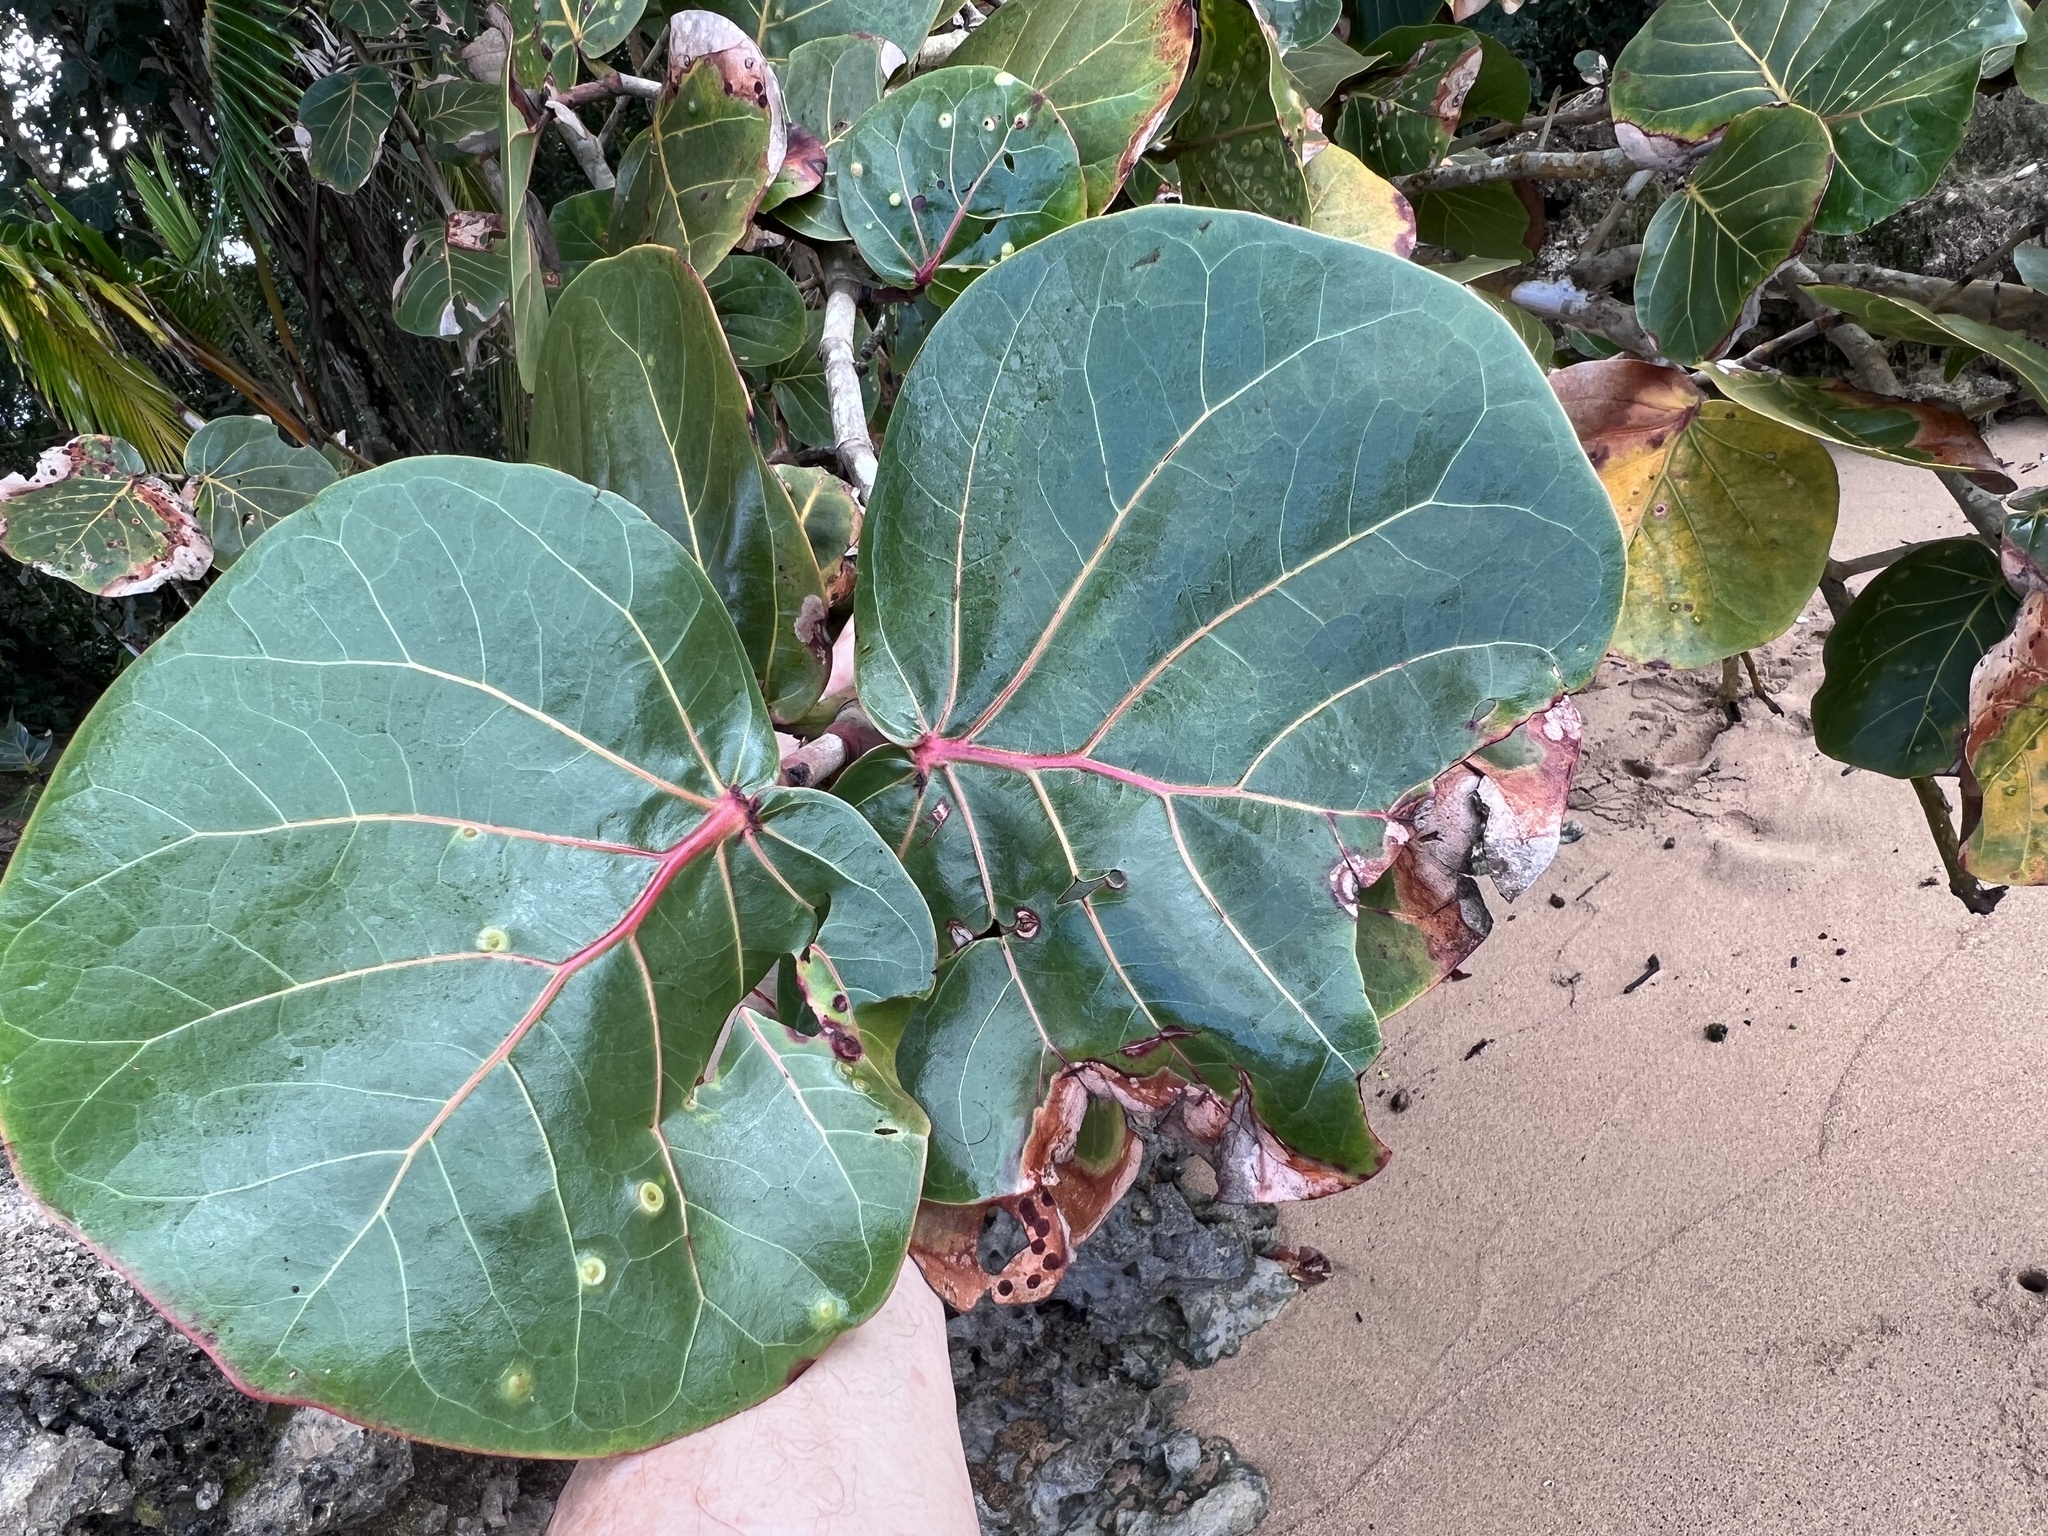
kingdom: Plantae
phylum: Tracheophyta
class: Magnoliopsida
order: Caryophyllales
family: Polygonaceae
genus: Coccoloba
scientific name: Coccoloba uvifera
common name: Seagrape
